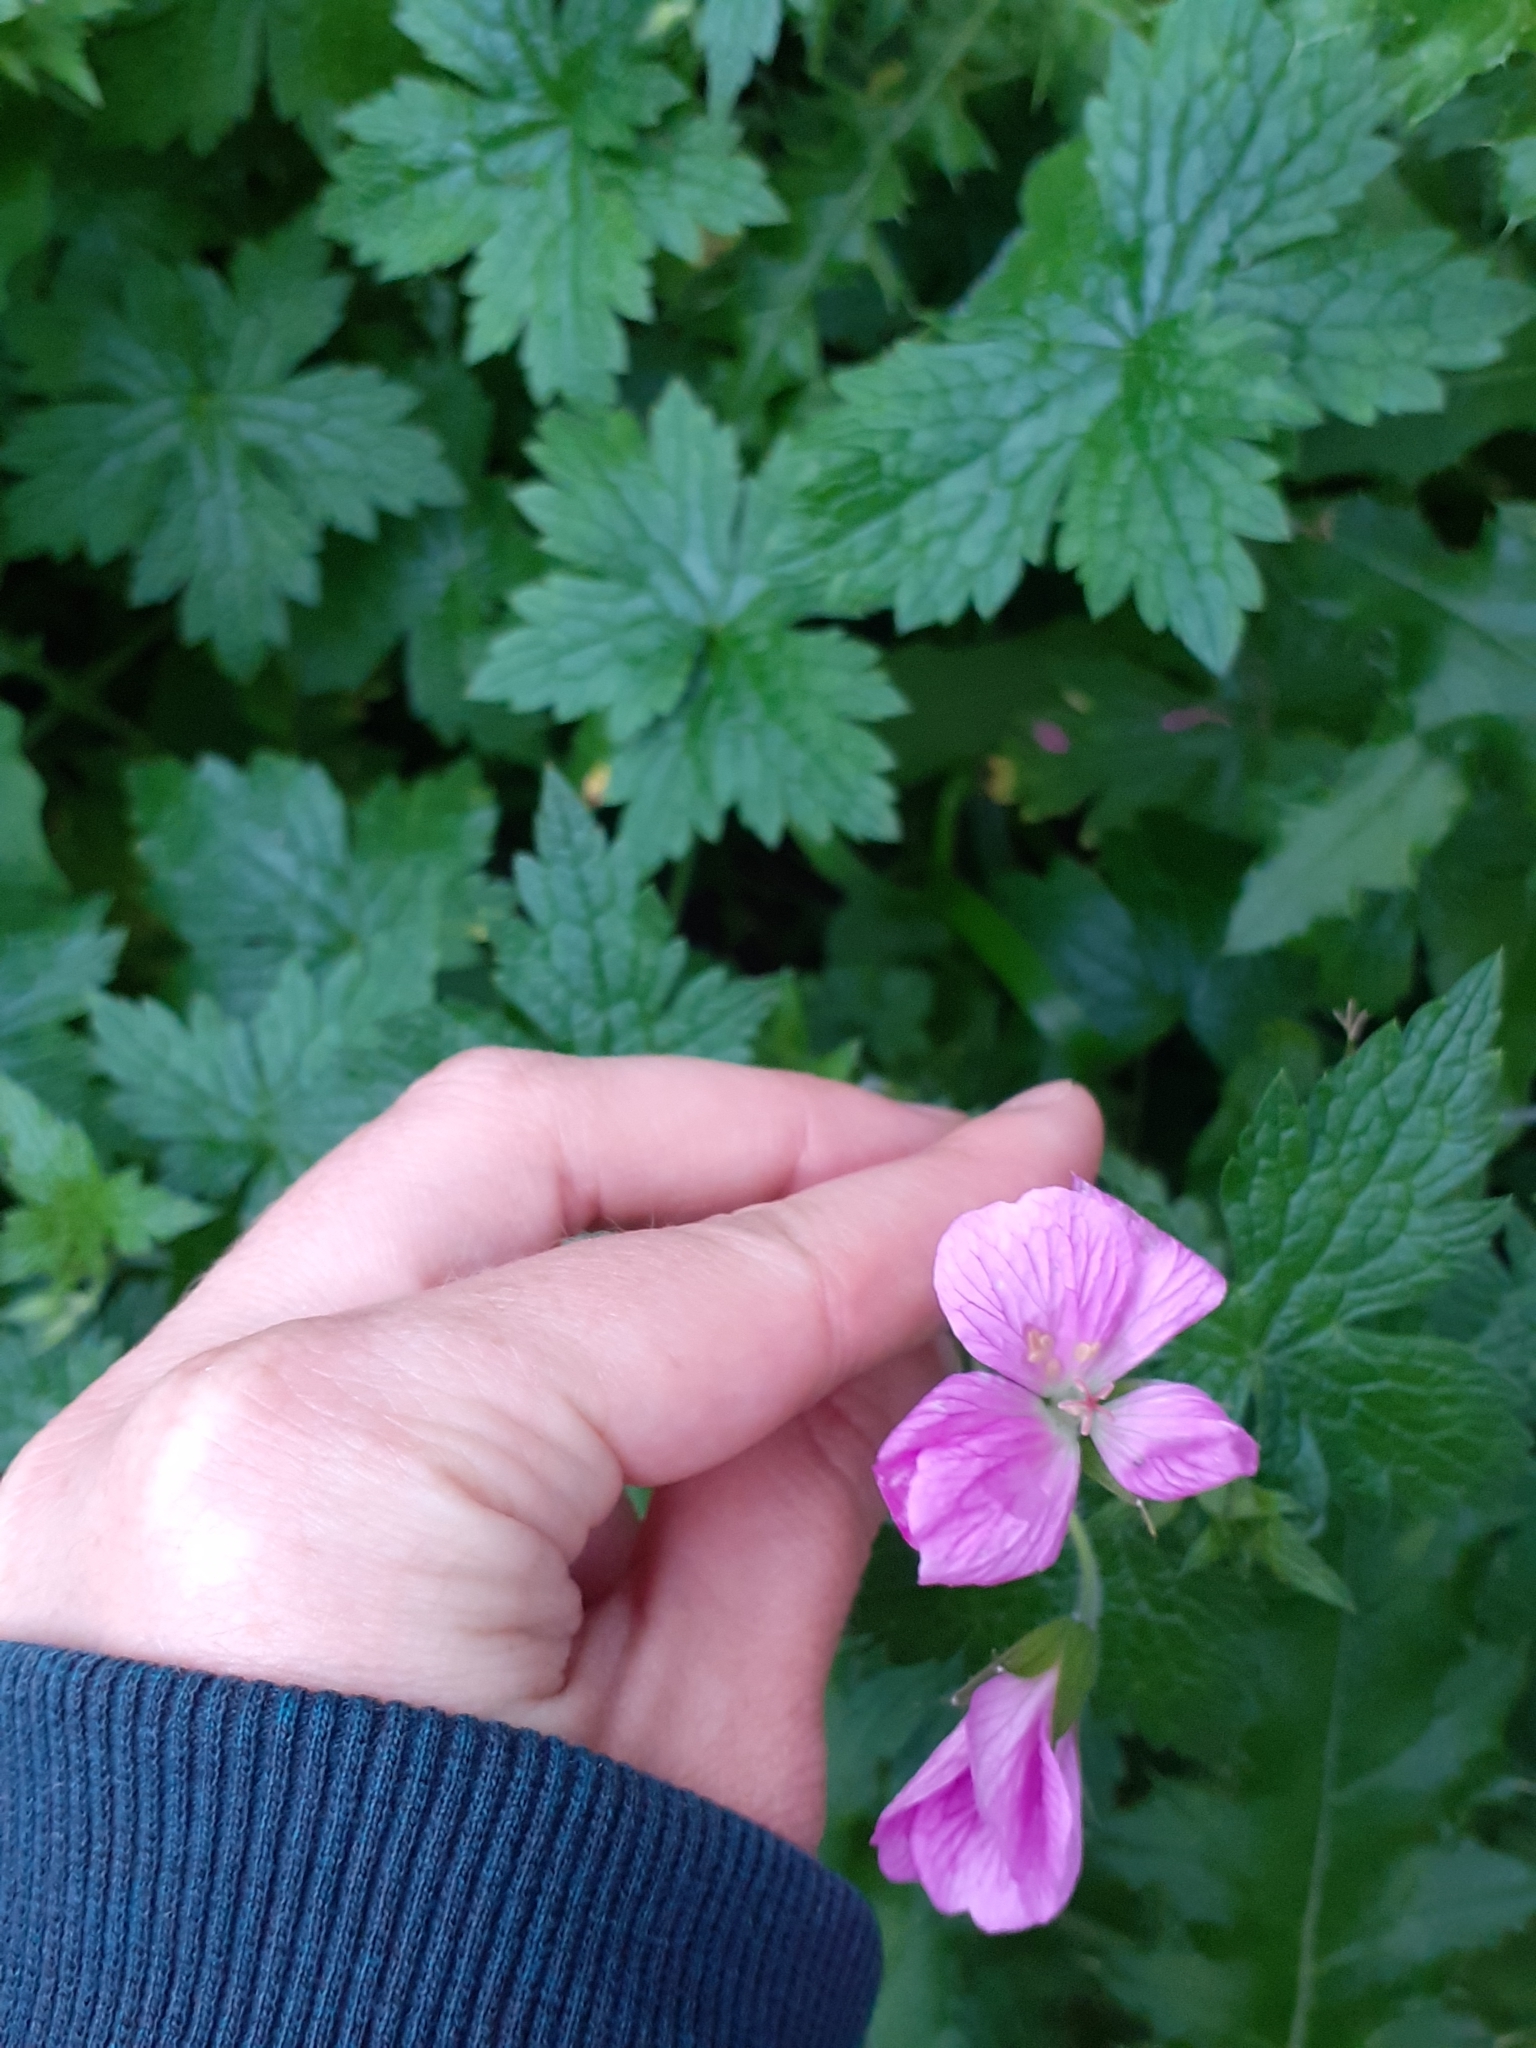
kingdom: Plantae
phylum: Tracheophyta
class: Magnoliopsida
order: Geraniales
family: Geraniaceae
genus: Geranium
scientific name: Geranium oxonianum
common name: Druce's crane's-bill
